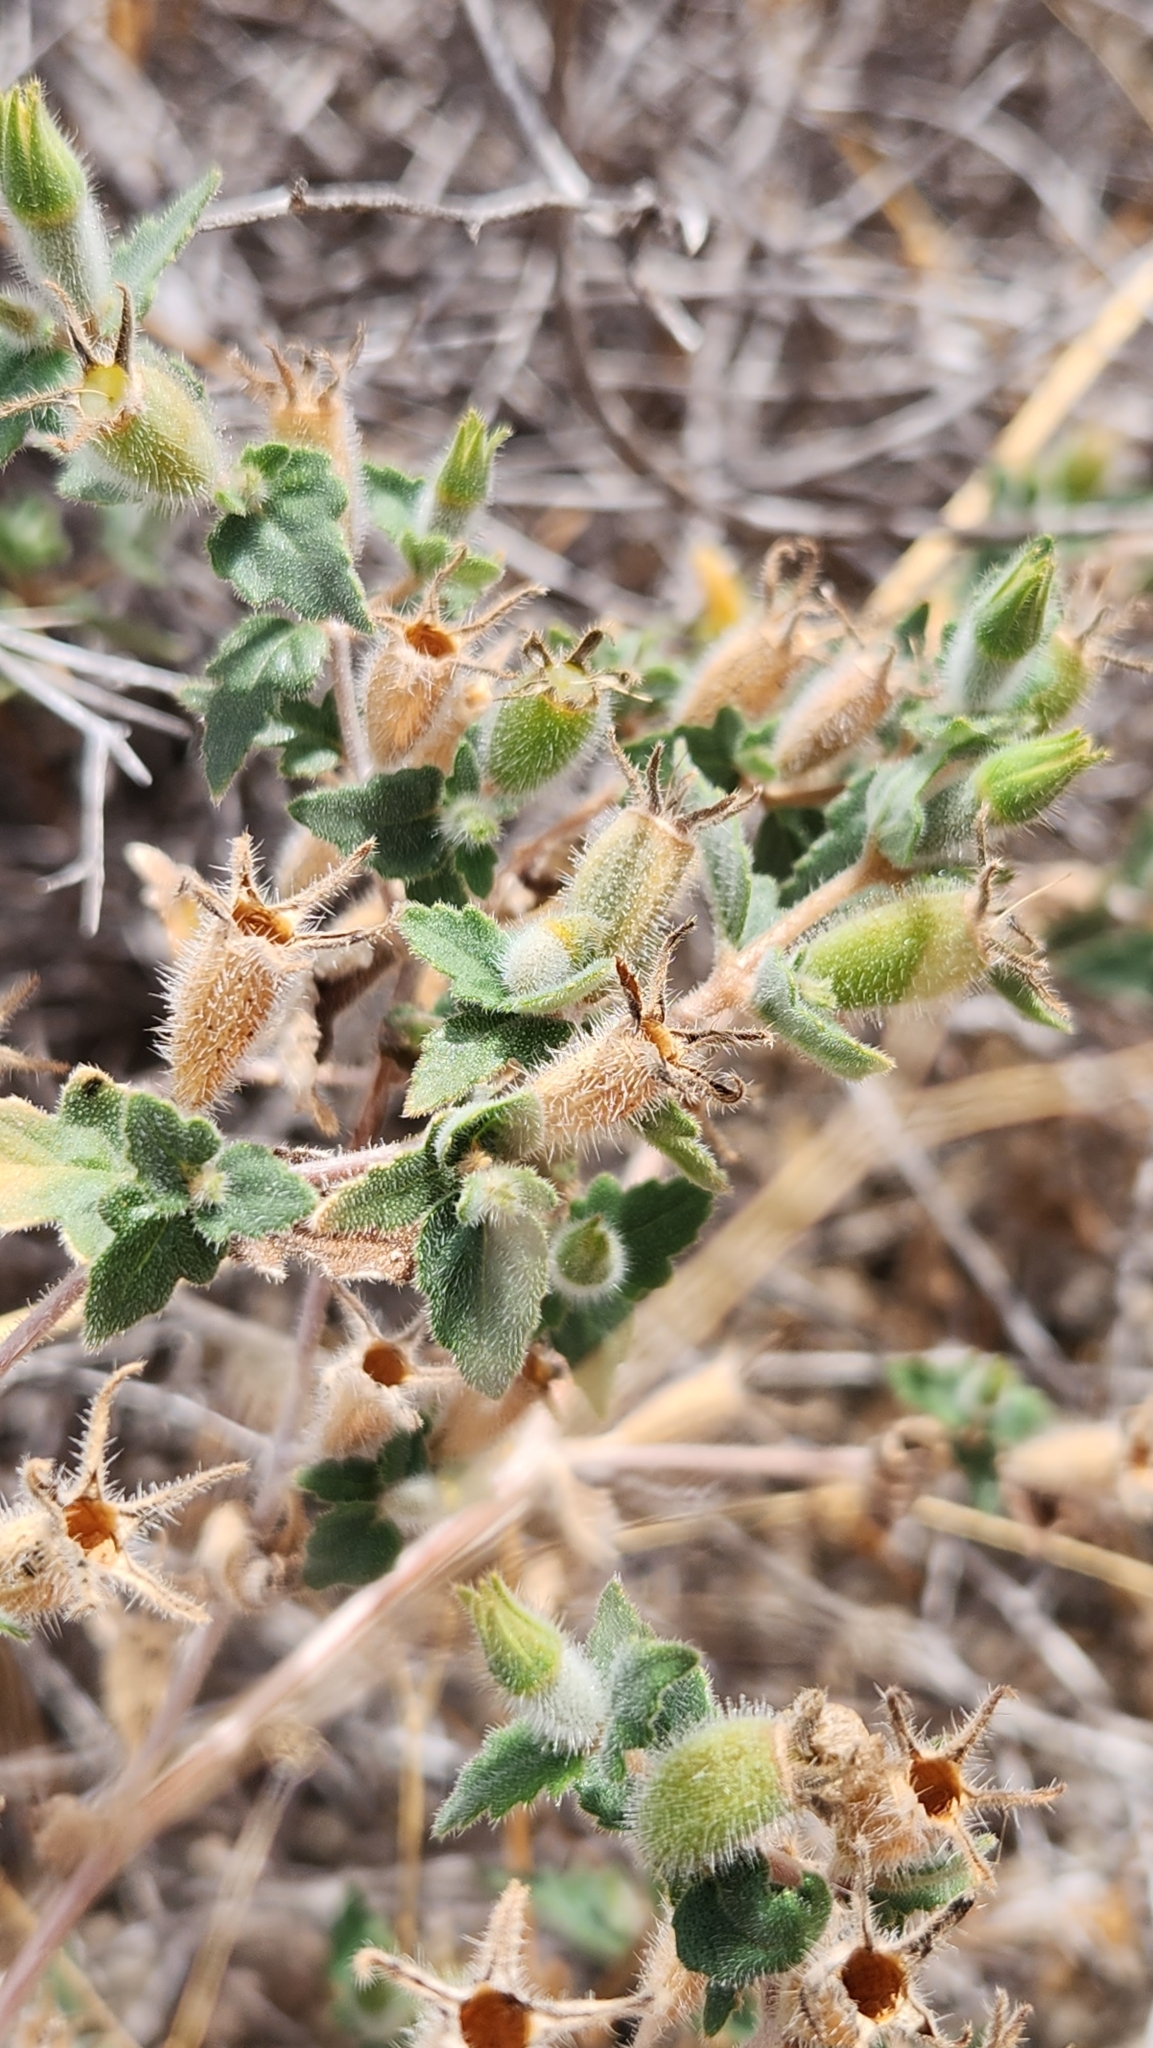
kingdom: Plantae
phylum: Tracheophyta
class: Magnoliopsida
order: Cornales
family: Loasaceae
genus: Mentzelia
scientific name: Mentzelia adhaerens
